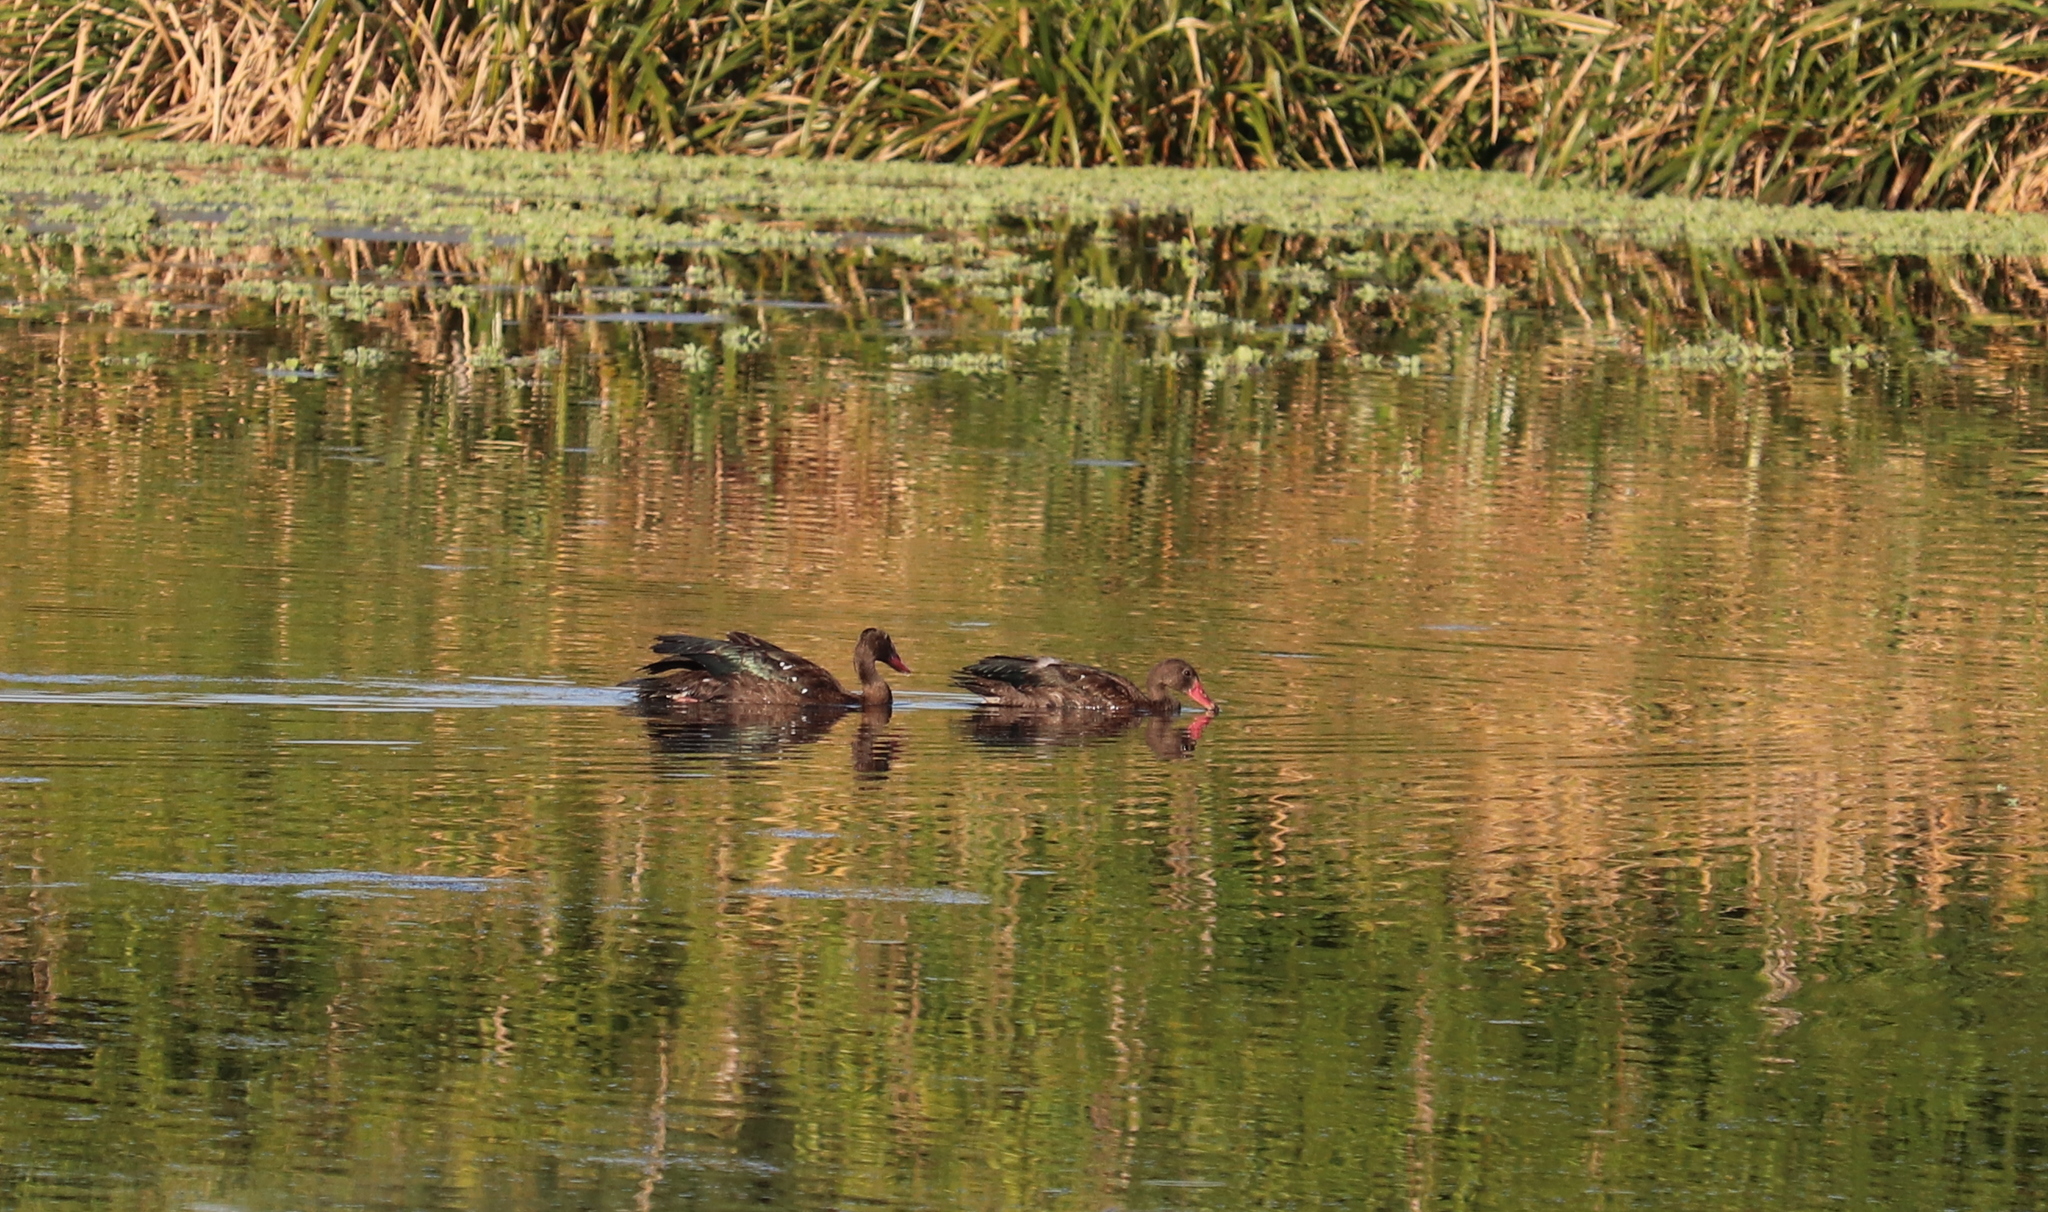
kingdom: Animalia
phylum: Chordata
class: Aves
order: Anseriformes
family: Anatidae
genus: Plectropterus
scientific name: Plectropterus gambensis
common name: Spur-winged goose
